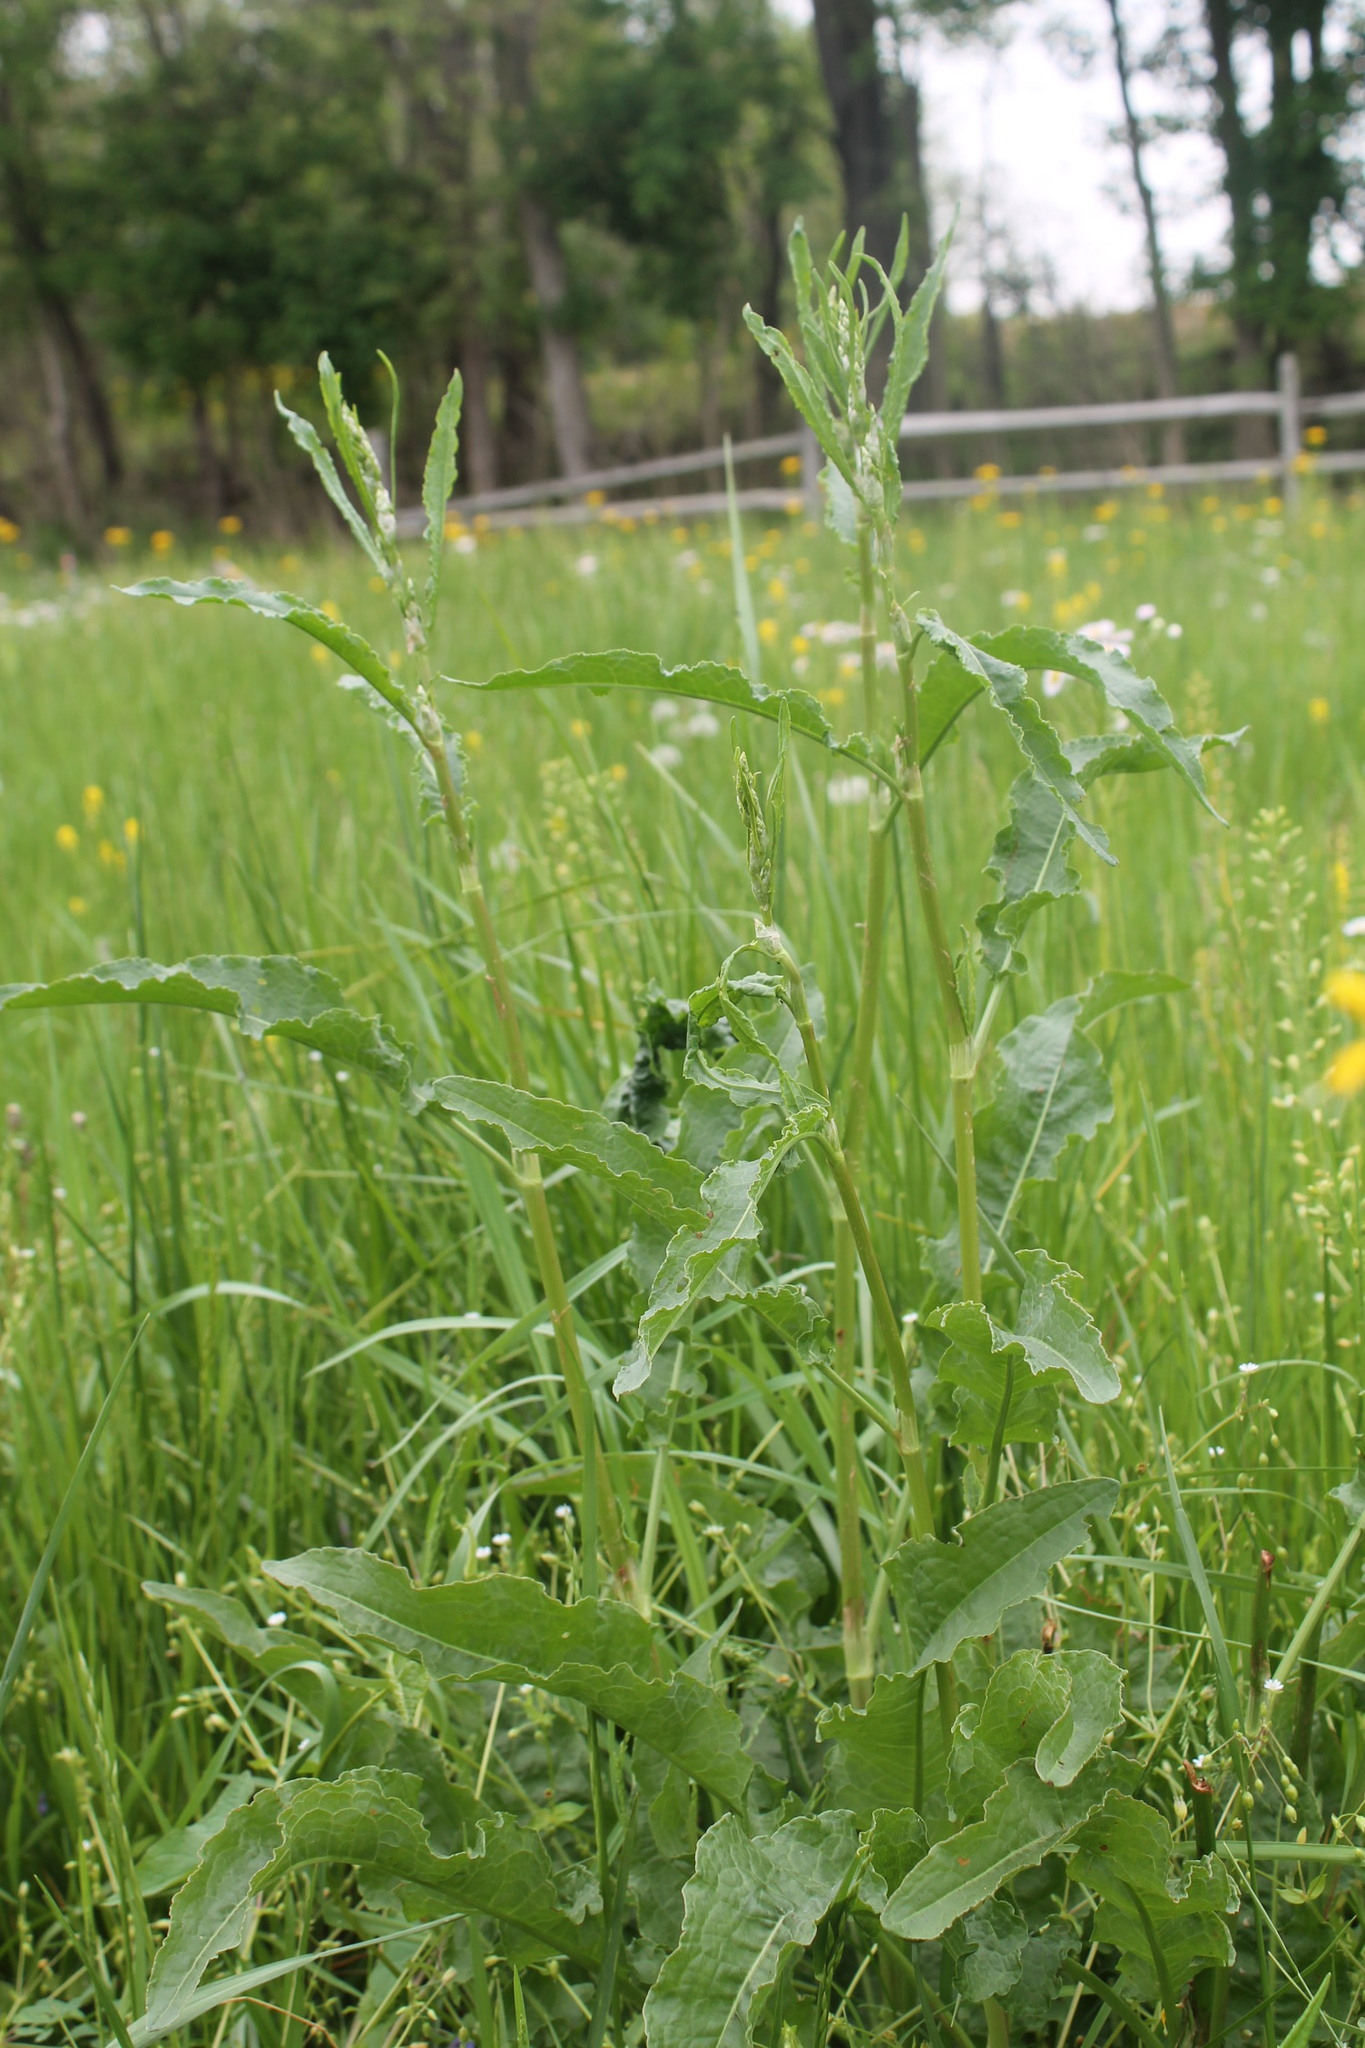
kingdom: Plantae
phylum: Tracheophyta
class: Magnoliopsida
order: Caryophyllales
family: Polygonaceae
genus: Rumex
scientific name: Rumex crispus
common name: Curled dock
